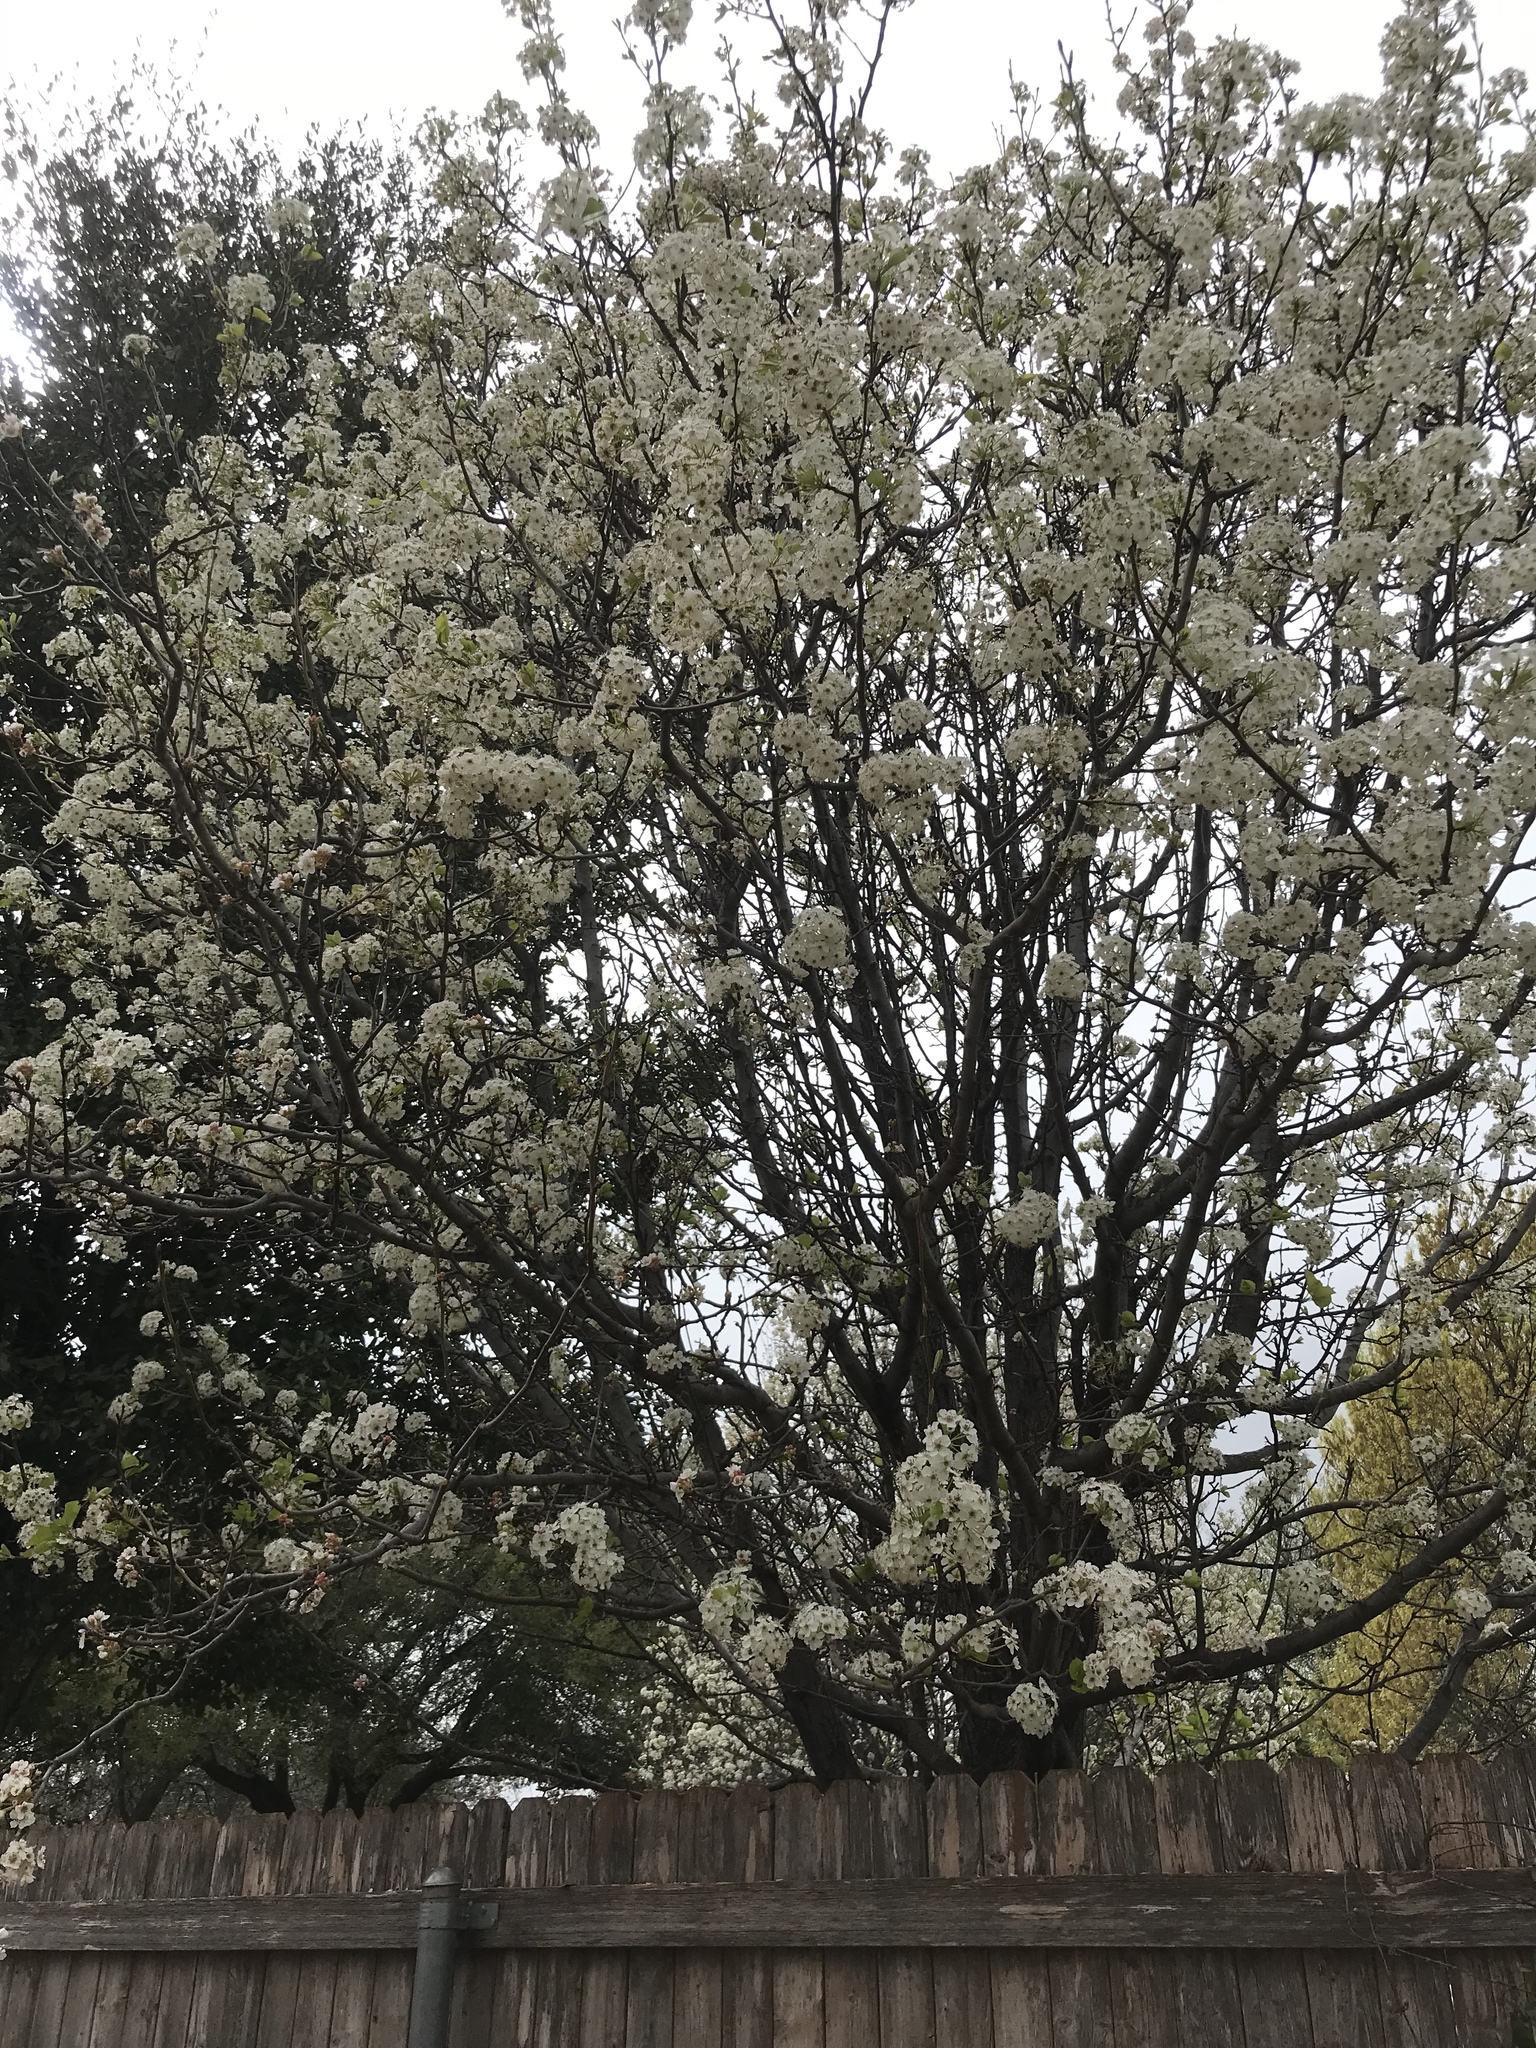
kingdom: Plantae
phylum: Tracheophyta
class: Magnoliopsida
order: Rosales
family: Rosaceae
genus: Pyrus
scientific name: Pyrus calleryana
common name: Callery pear
